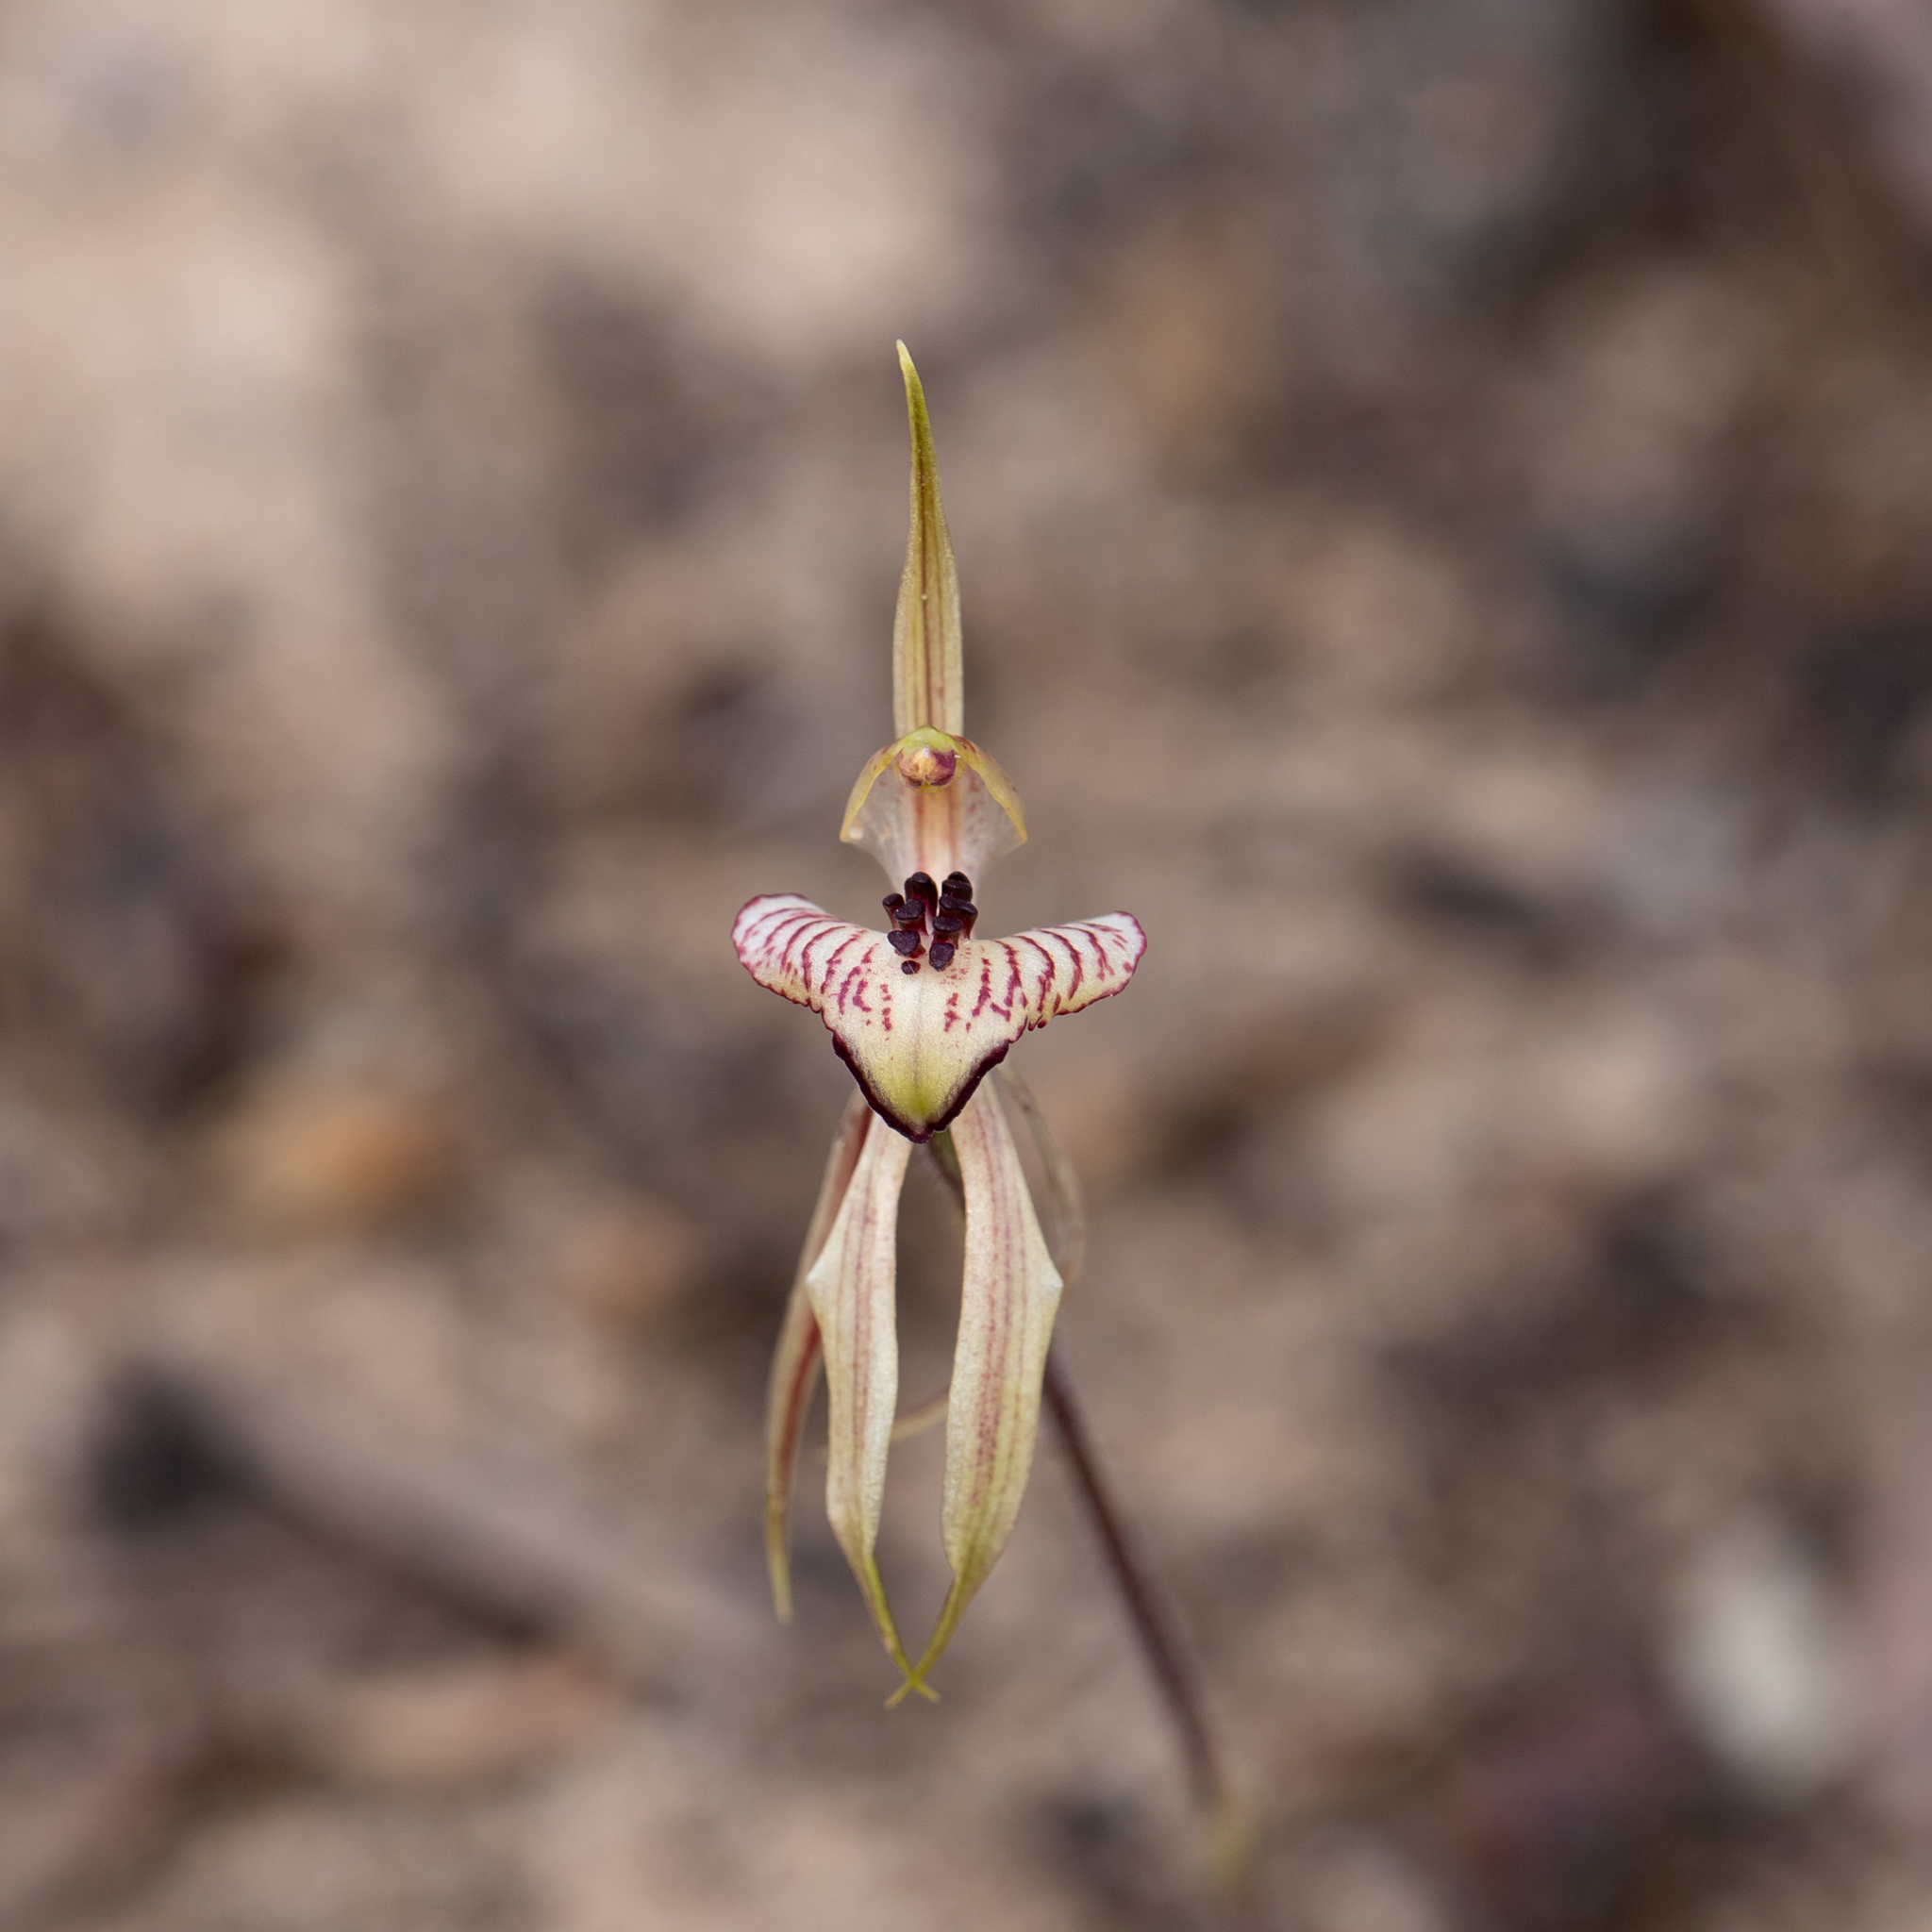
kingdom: Plantae
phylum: Tracheophyta
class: Liliopsida
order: Asparagales
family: Orchidaceae
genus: Caladenia
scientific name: Caladenia cardiochila
